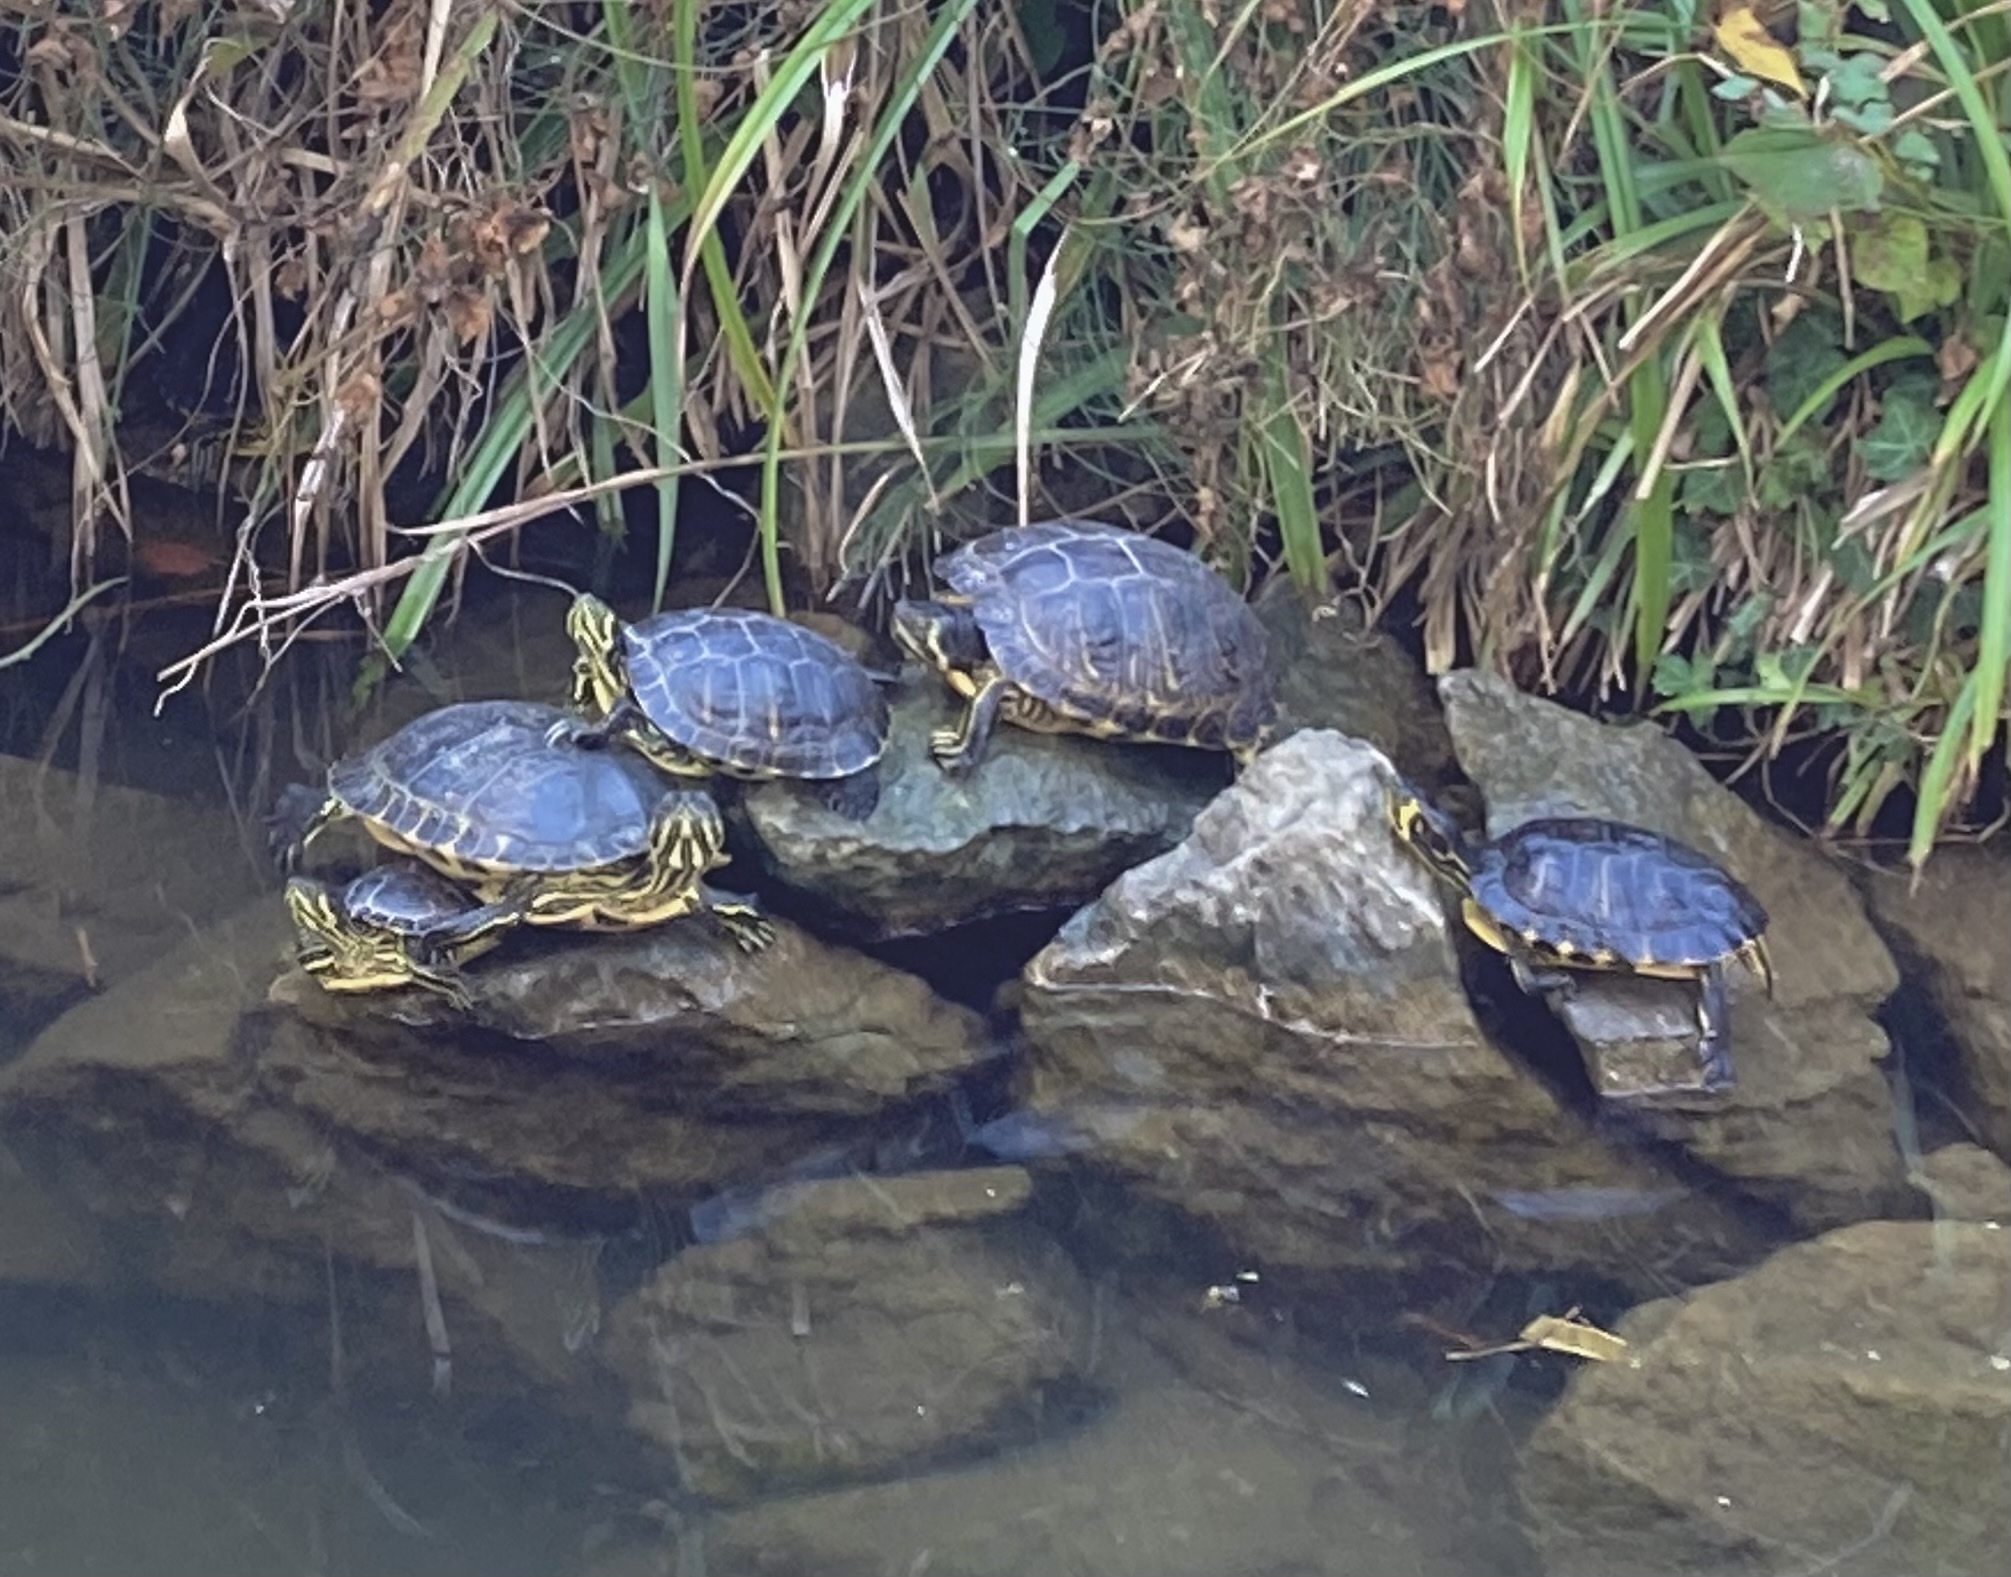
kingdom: Animalia
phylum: Chordata
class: Testudines
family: Emydidae
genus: Trachemys
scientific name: Trachemys scripta
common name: Slider
